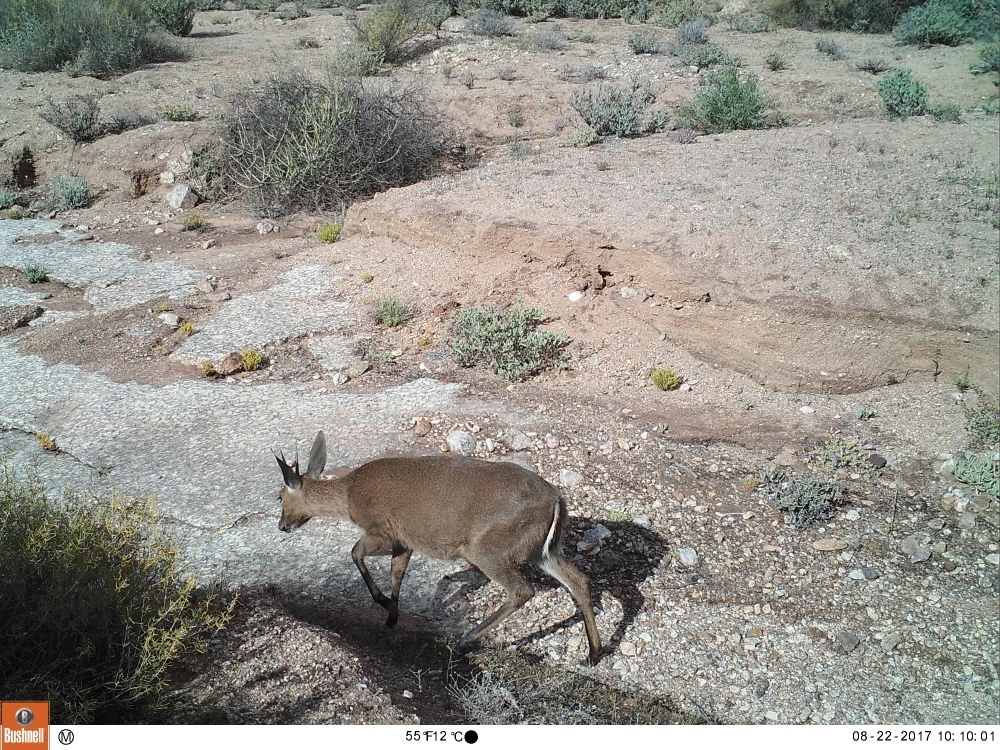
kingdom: Animalia
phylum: Chordata
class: Mammalia
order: Artiodactyla
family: Bovidae
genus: Sylvicapra
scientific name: Sylvicapra grimmia
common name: Bush duiker
